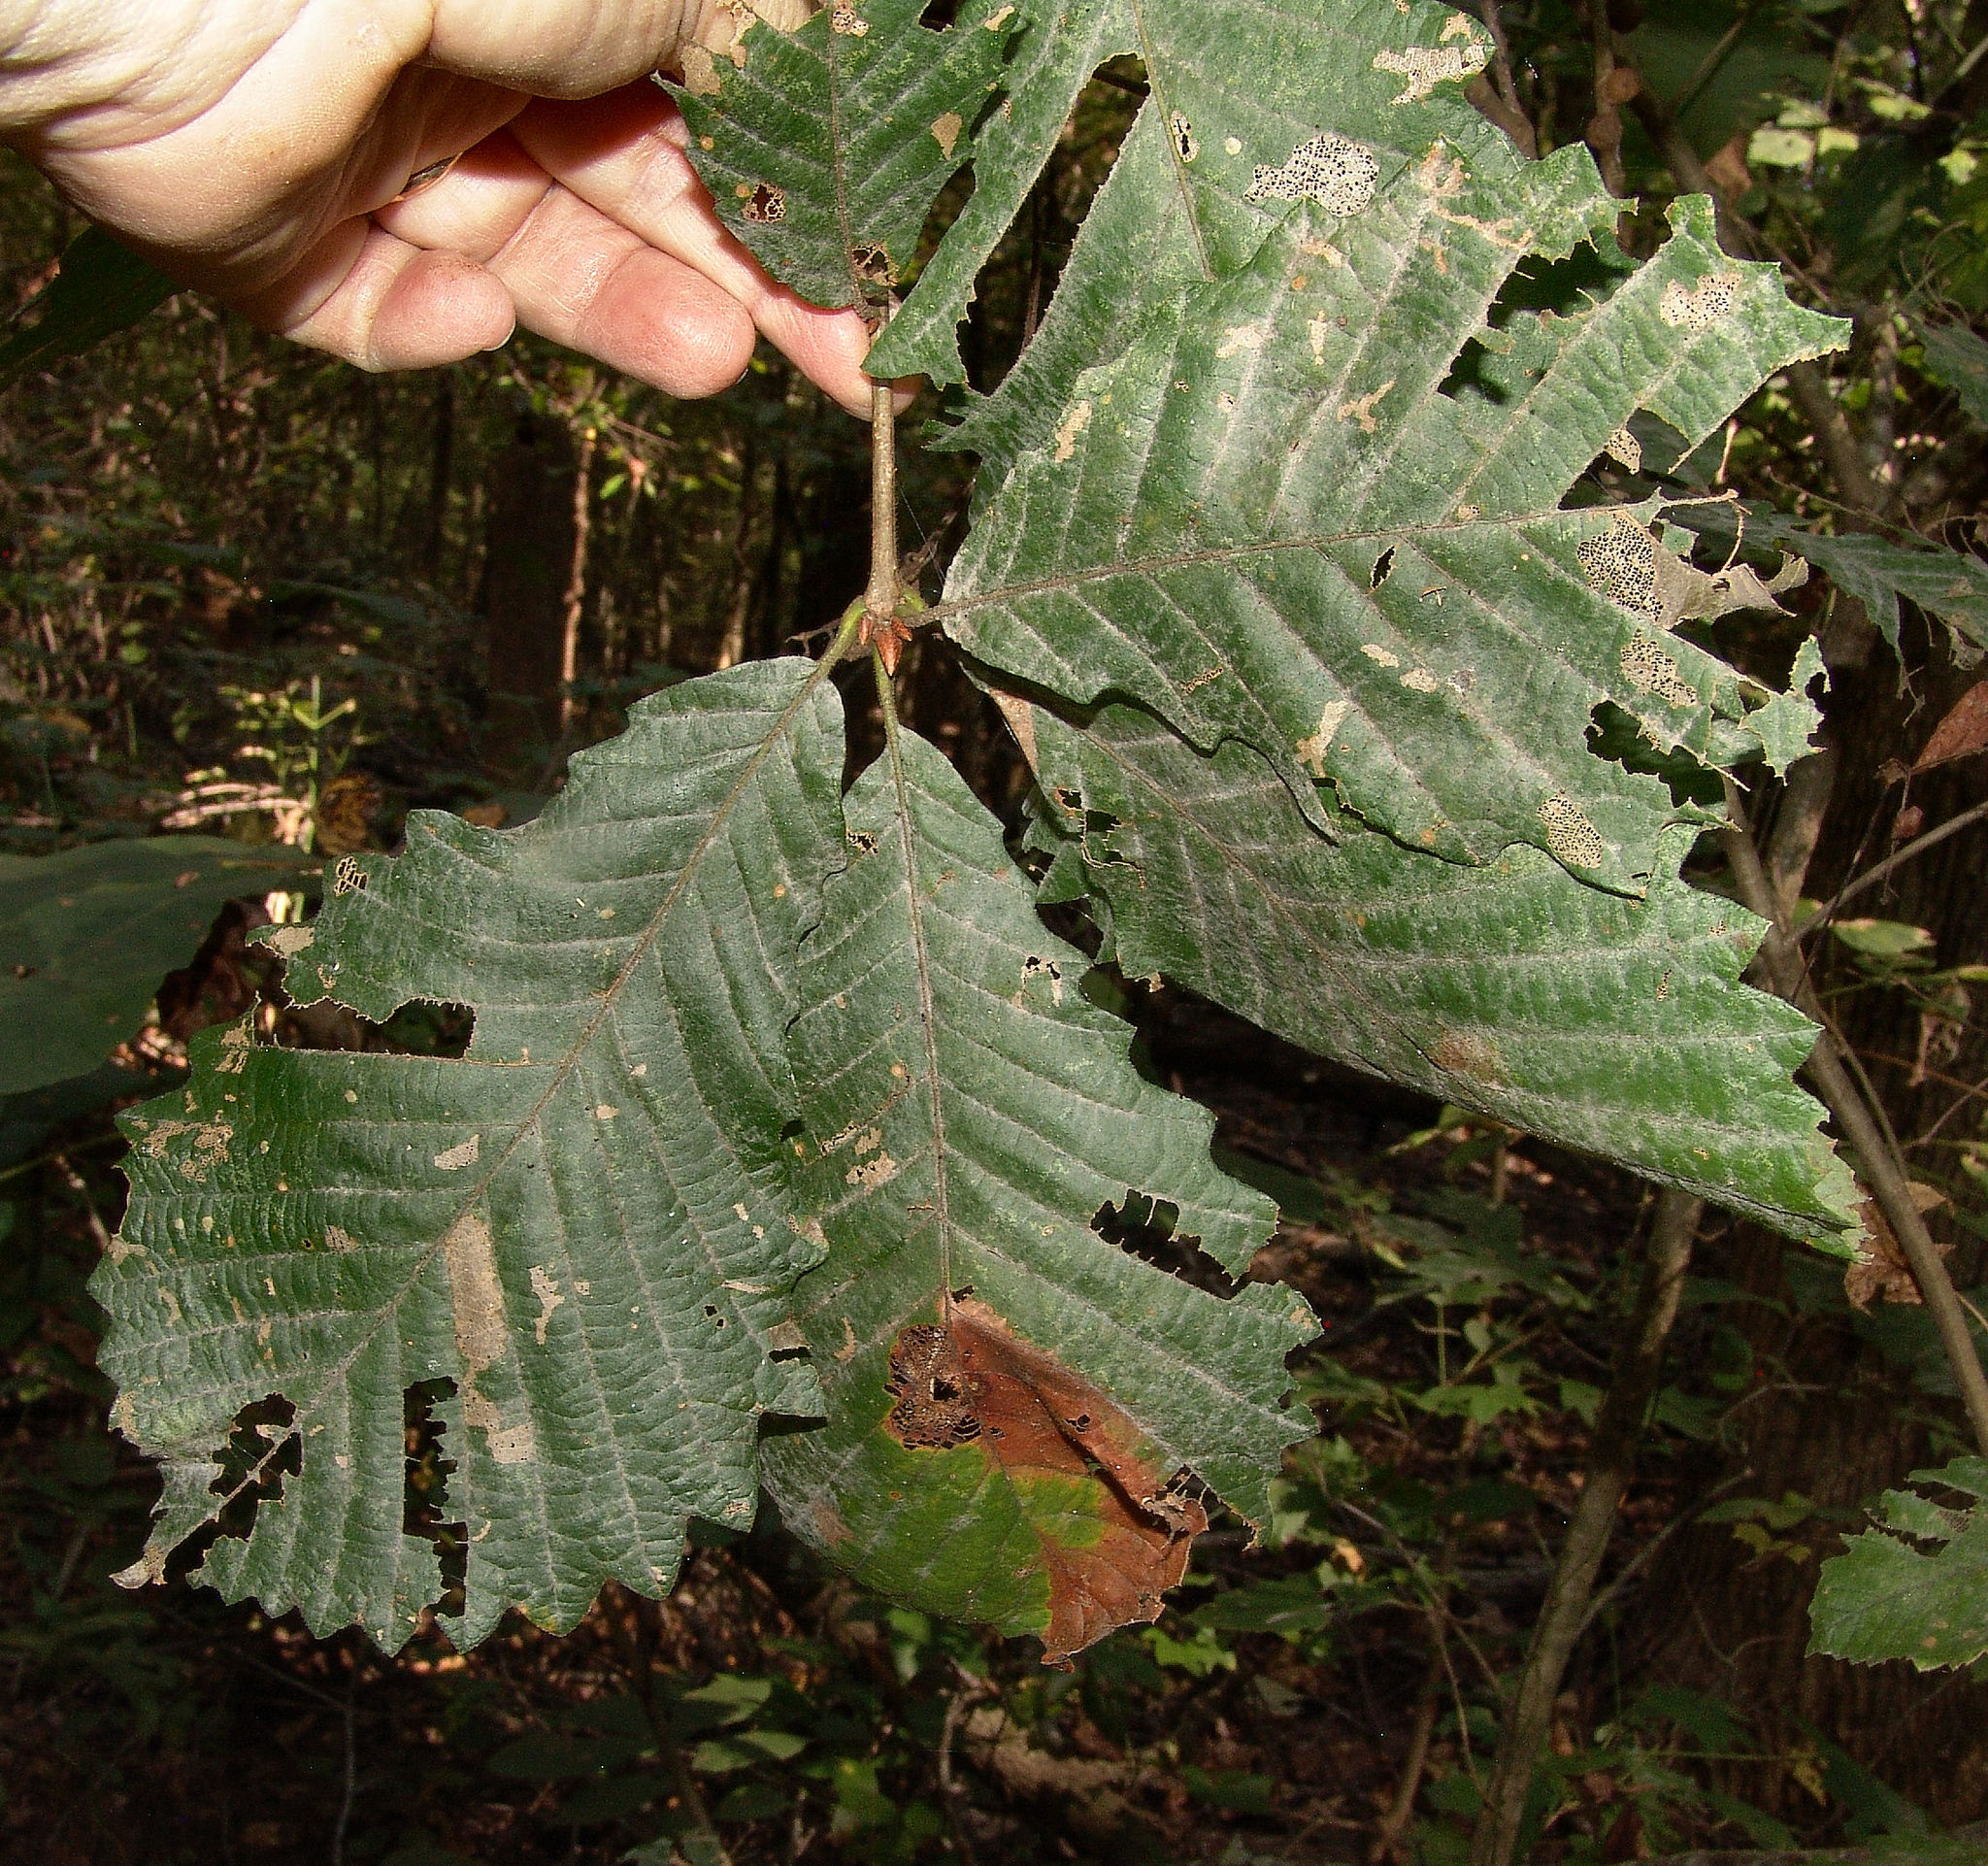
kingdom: Plantae
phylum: Tracheophyta
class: Magnoliopsida
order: Fagales
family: Fagaceae
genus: Quercus
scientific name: Quercus michauxii
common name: Swamp chestnut oak
